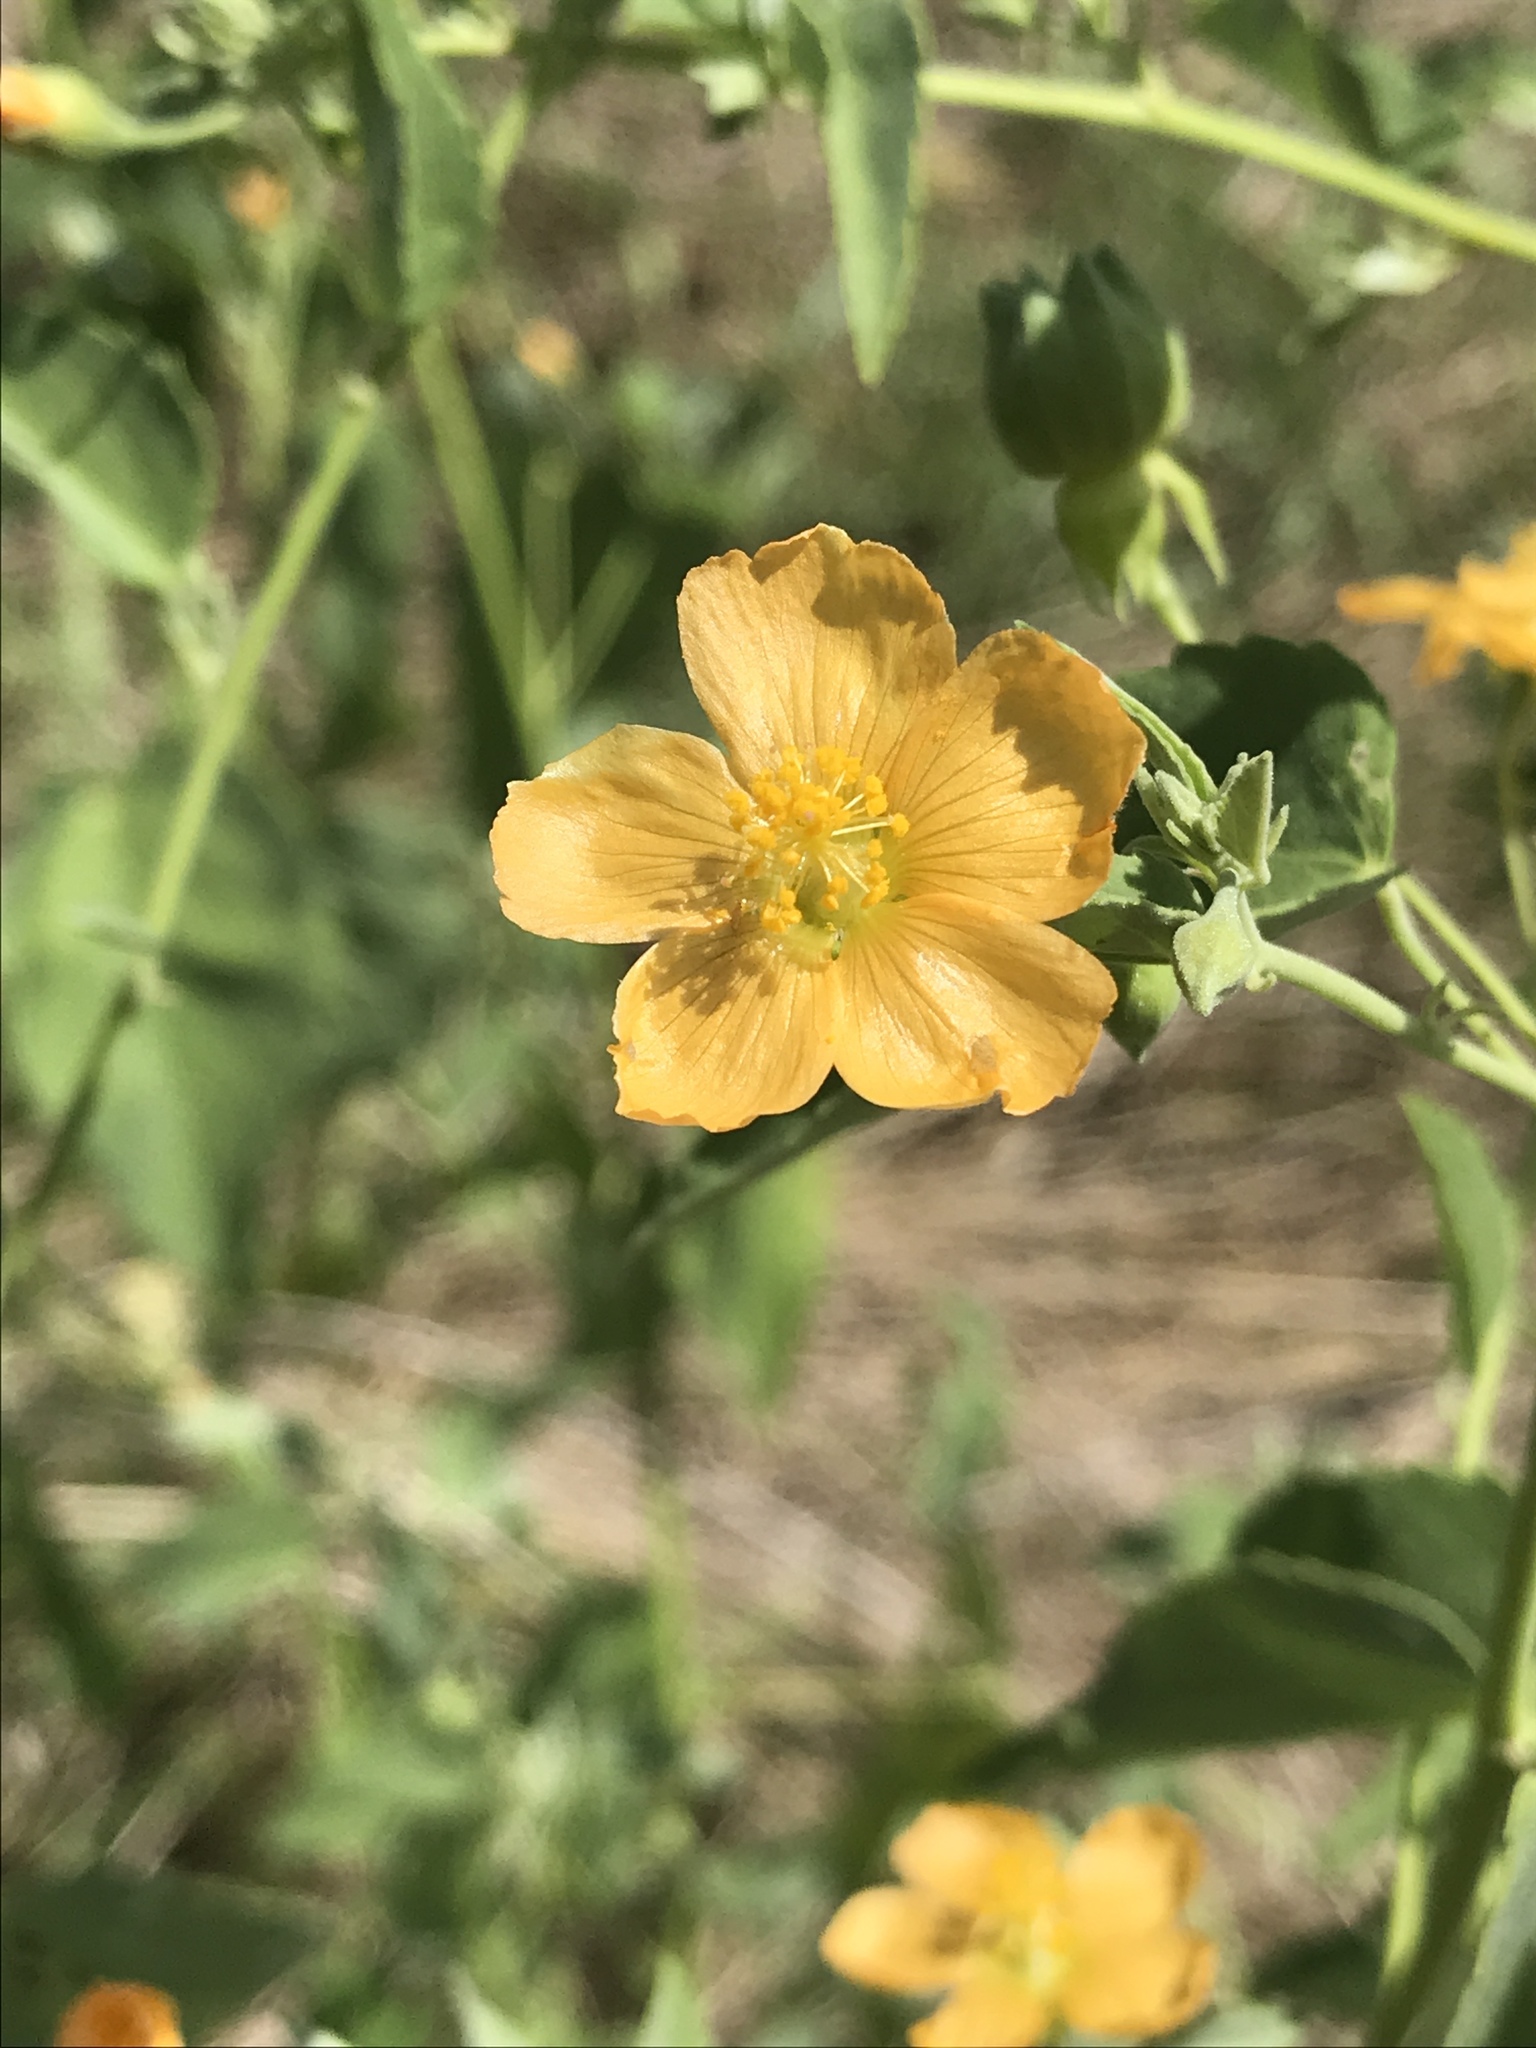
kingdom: Plantae
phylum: Tracheophyta
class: Magnoliopsida
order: Malvales
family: Malvaceae
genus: Abutilon
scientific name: Abutilon fruticosum
